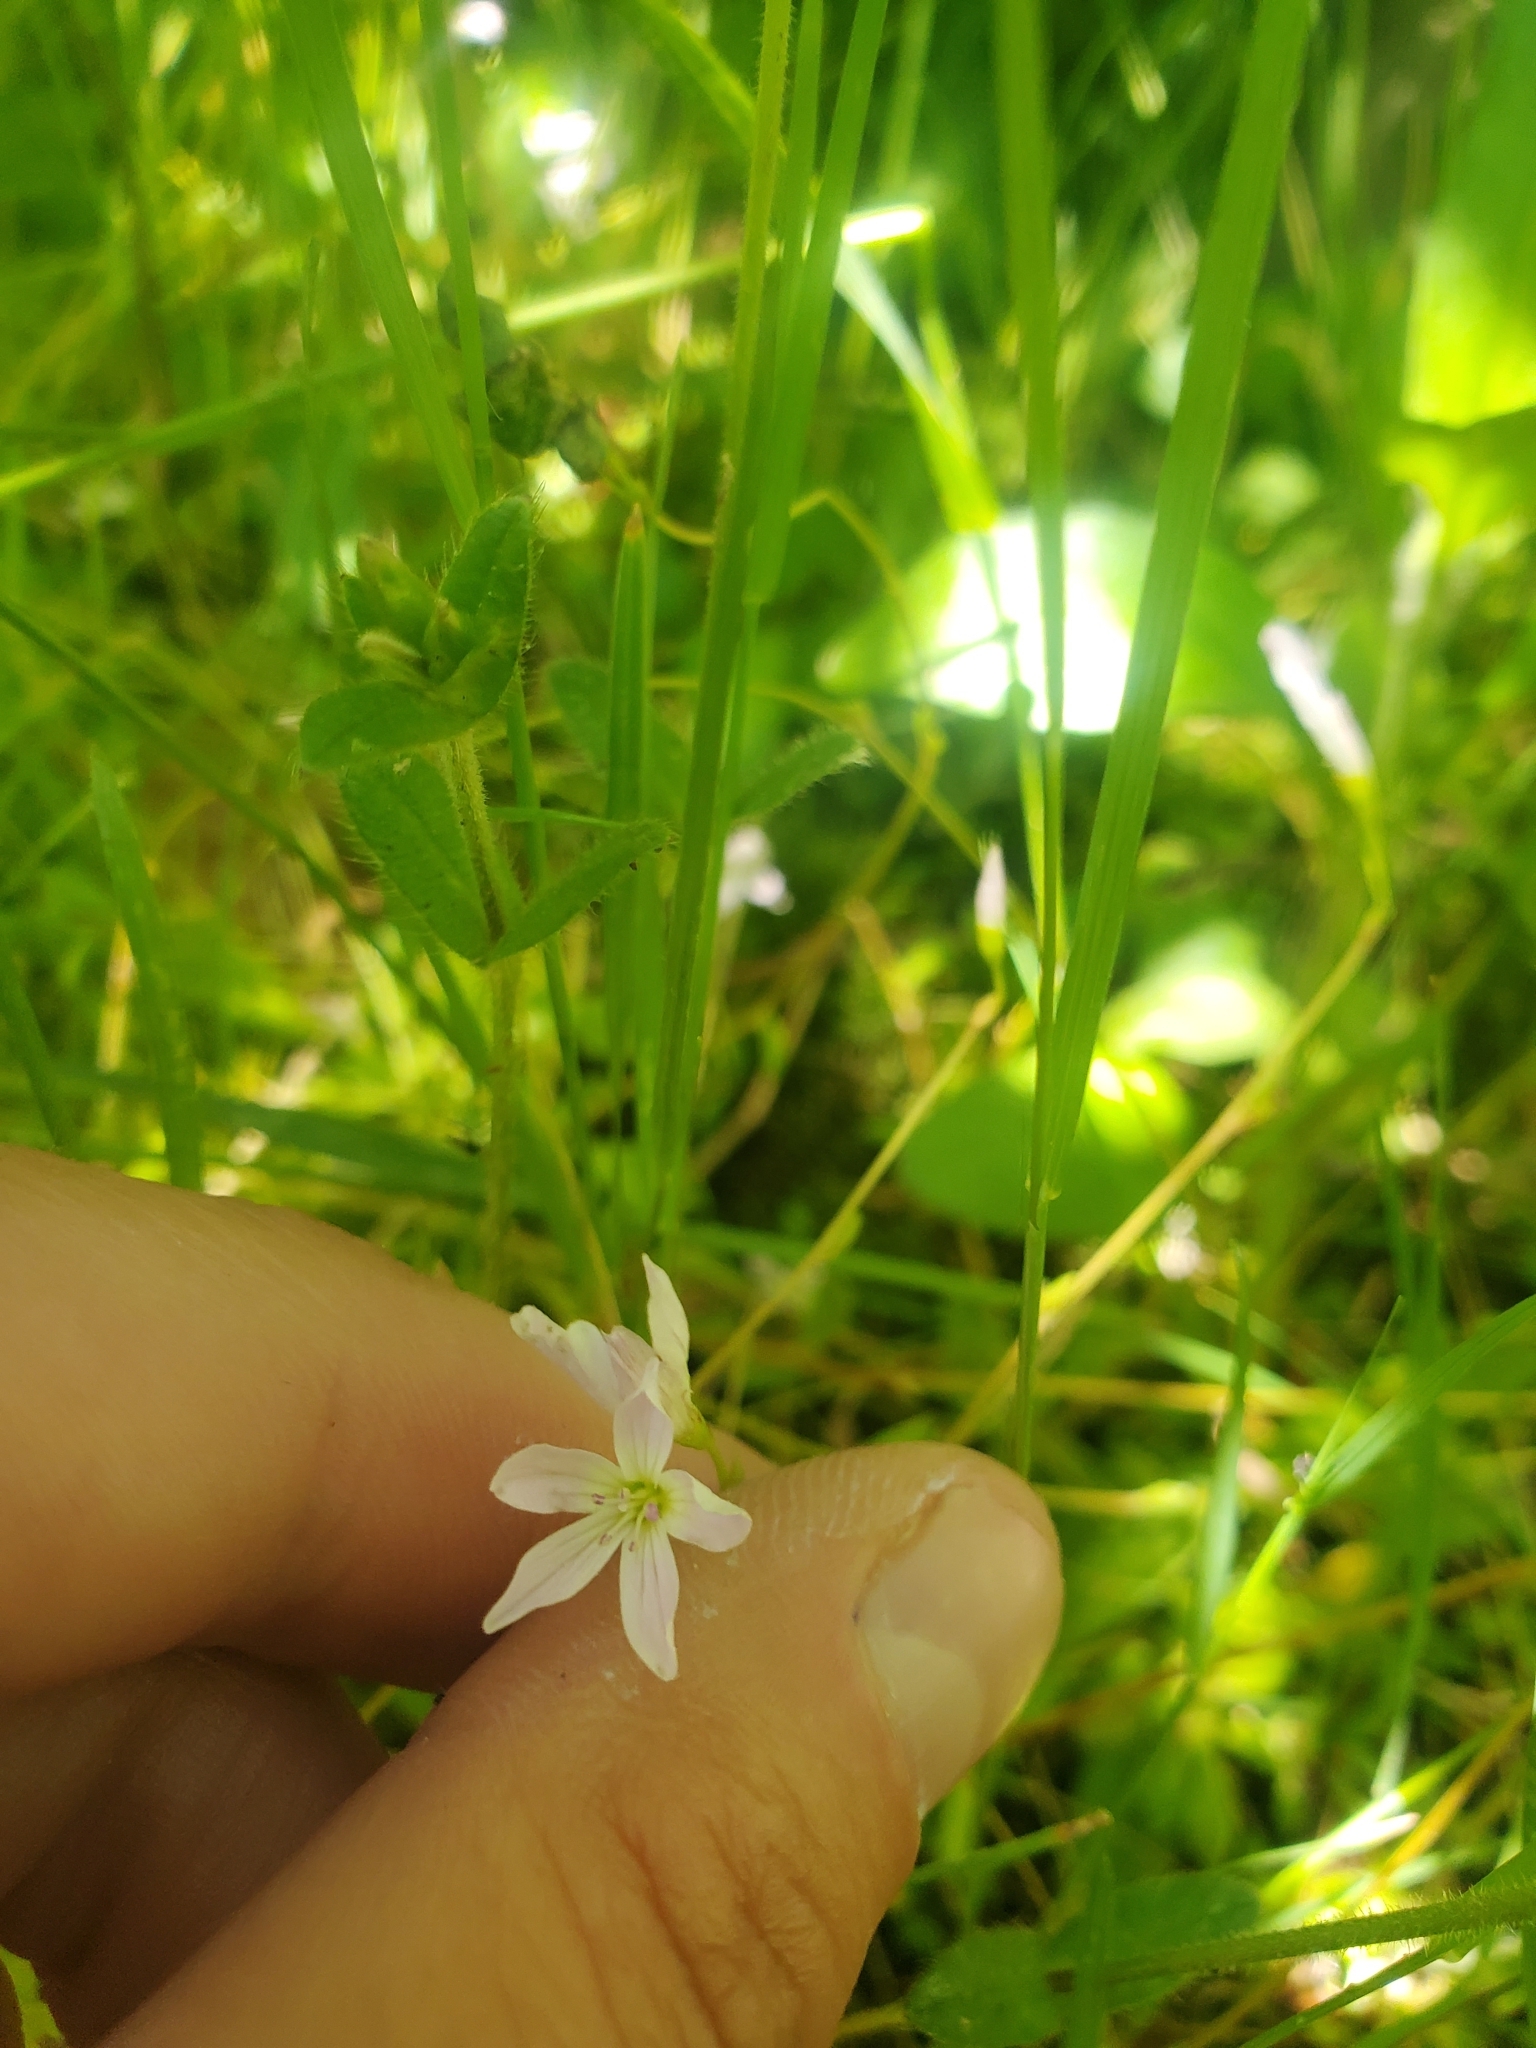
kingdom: Plantae
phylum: Tracheophyta
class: Magnoliopsida
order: Caryophyllales
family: Montiaceae
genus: Montia
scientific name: Montia parvifolia
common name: Small-leaved blinks
